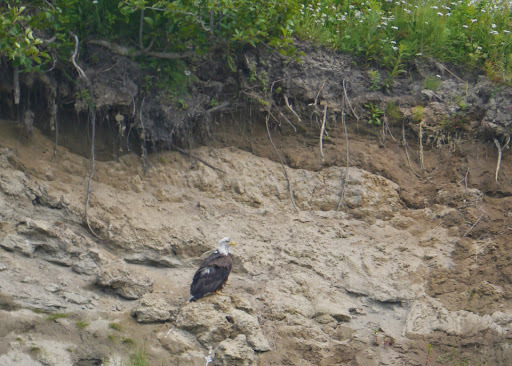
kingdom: Animalia
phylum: Chordata
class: Aves
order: Accipitriformes
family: Accipitridae
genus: Haliaeetus
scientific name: Haliaeetus leucocephalus
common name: Bald eagle
